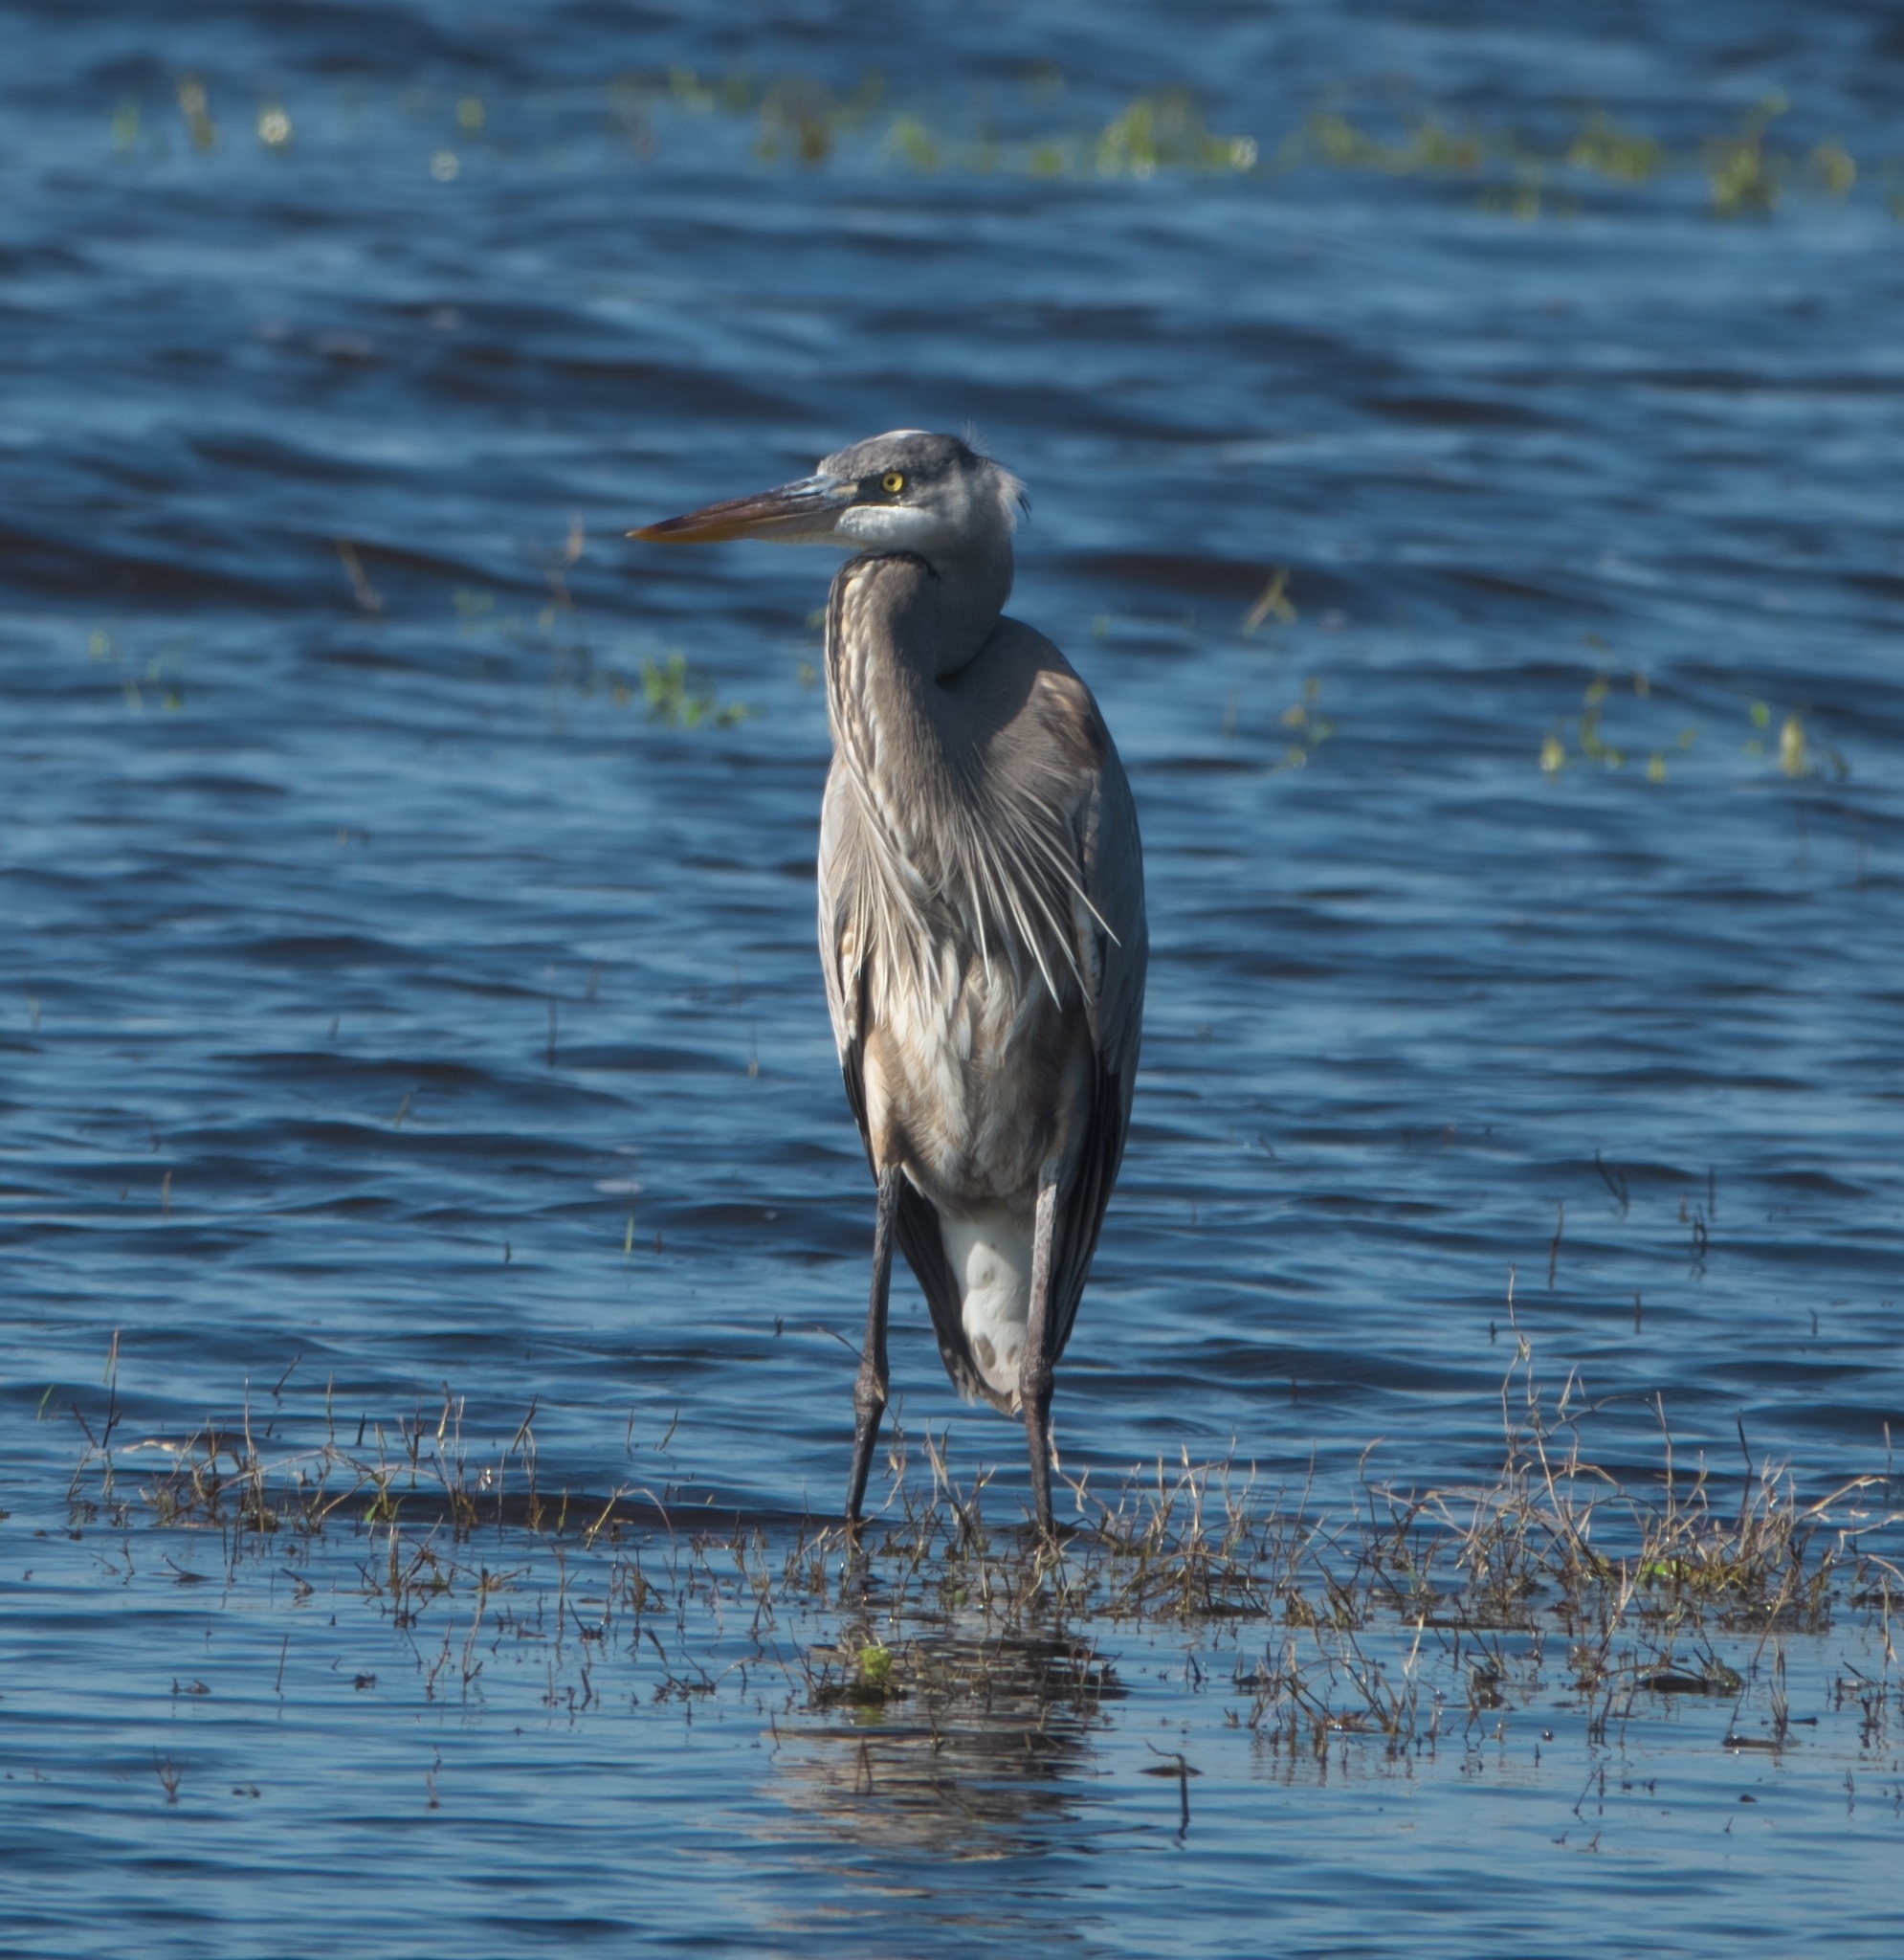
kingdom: Animalia
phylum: Chordata
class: Aves
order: Pelecaniformes
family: Ardeidae
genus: Ardea
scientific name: Ardea herodias
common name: Great blue heron
